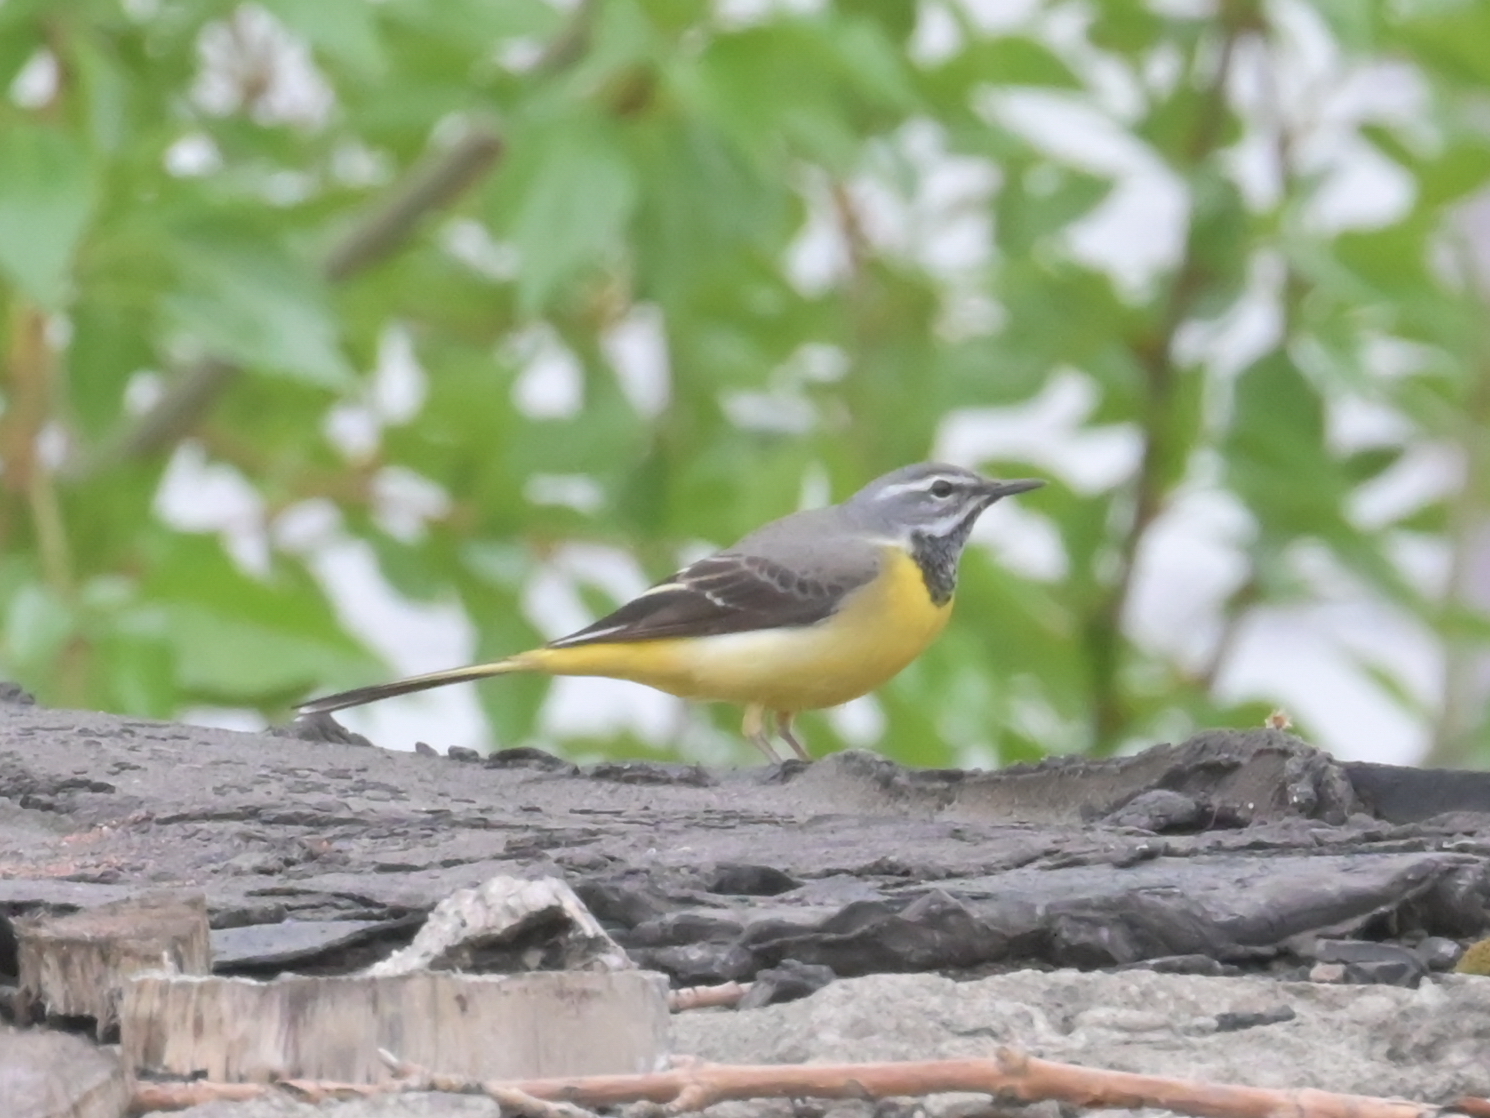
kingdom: Animalia
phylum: Chordata
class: Aves
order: Passeriformes
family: Motacillidae
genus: Motacilla
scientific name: Motacilla cinerea
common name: Grey wagtail
